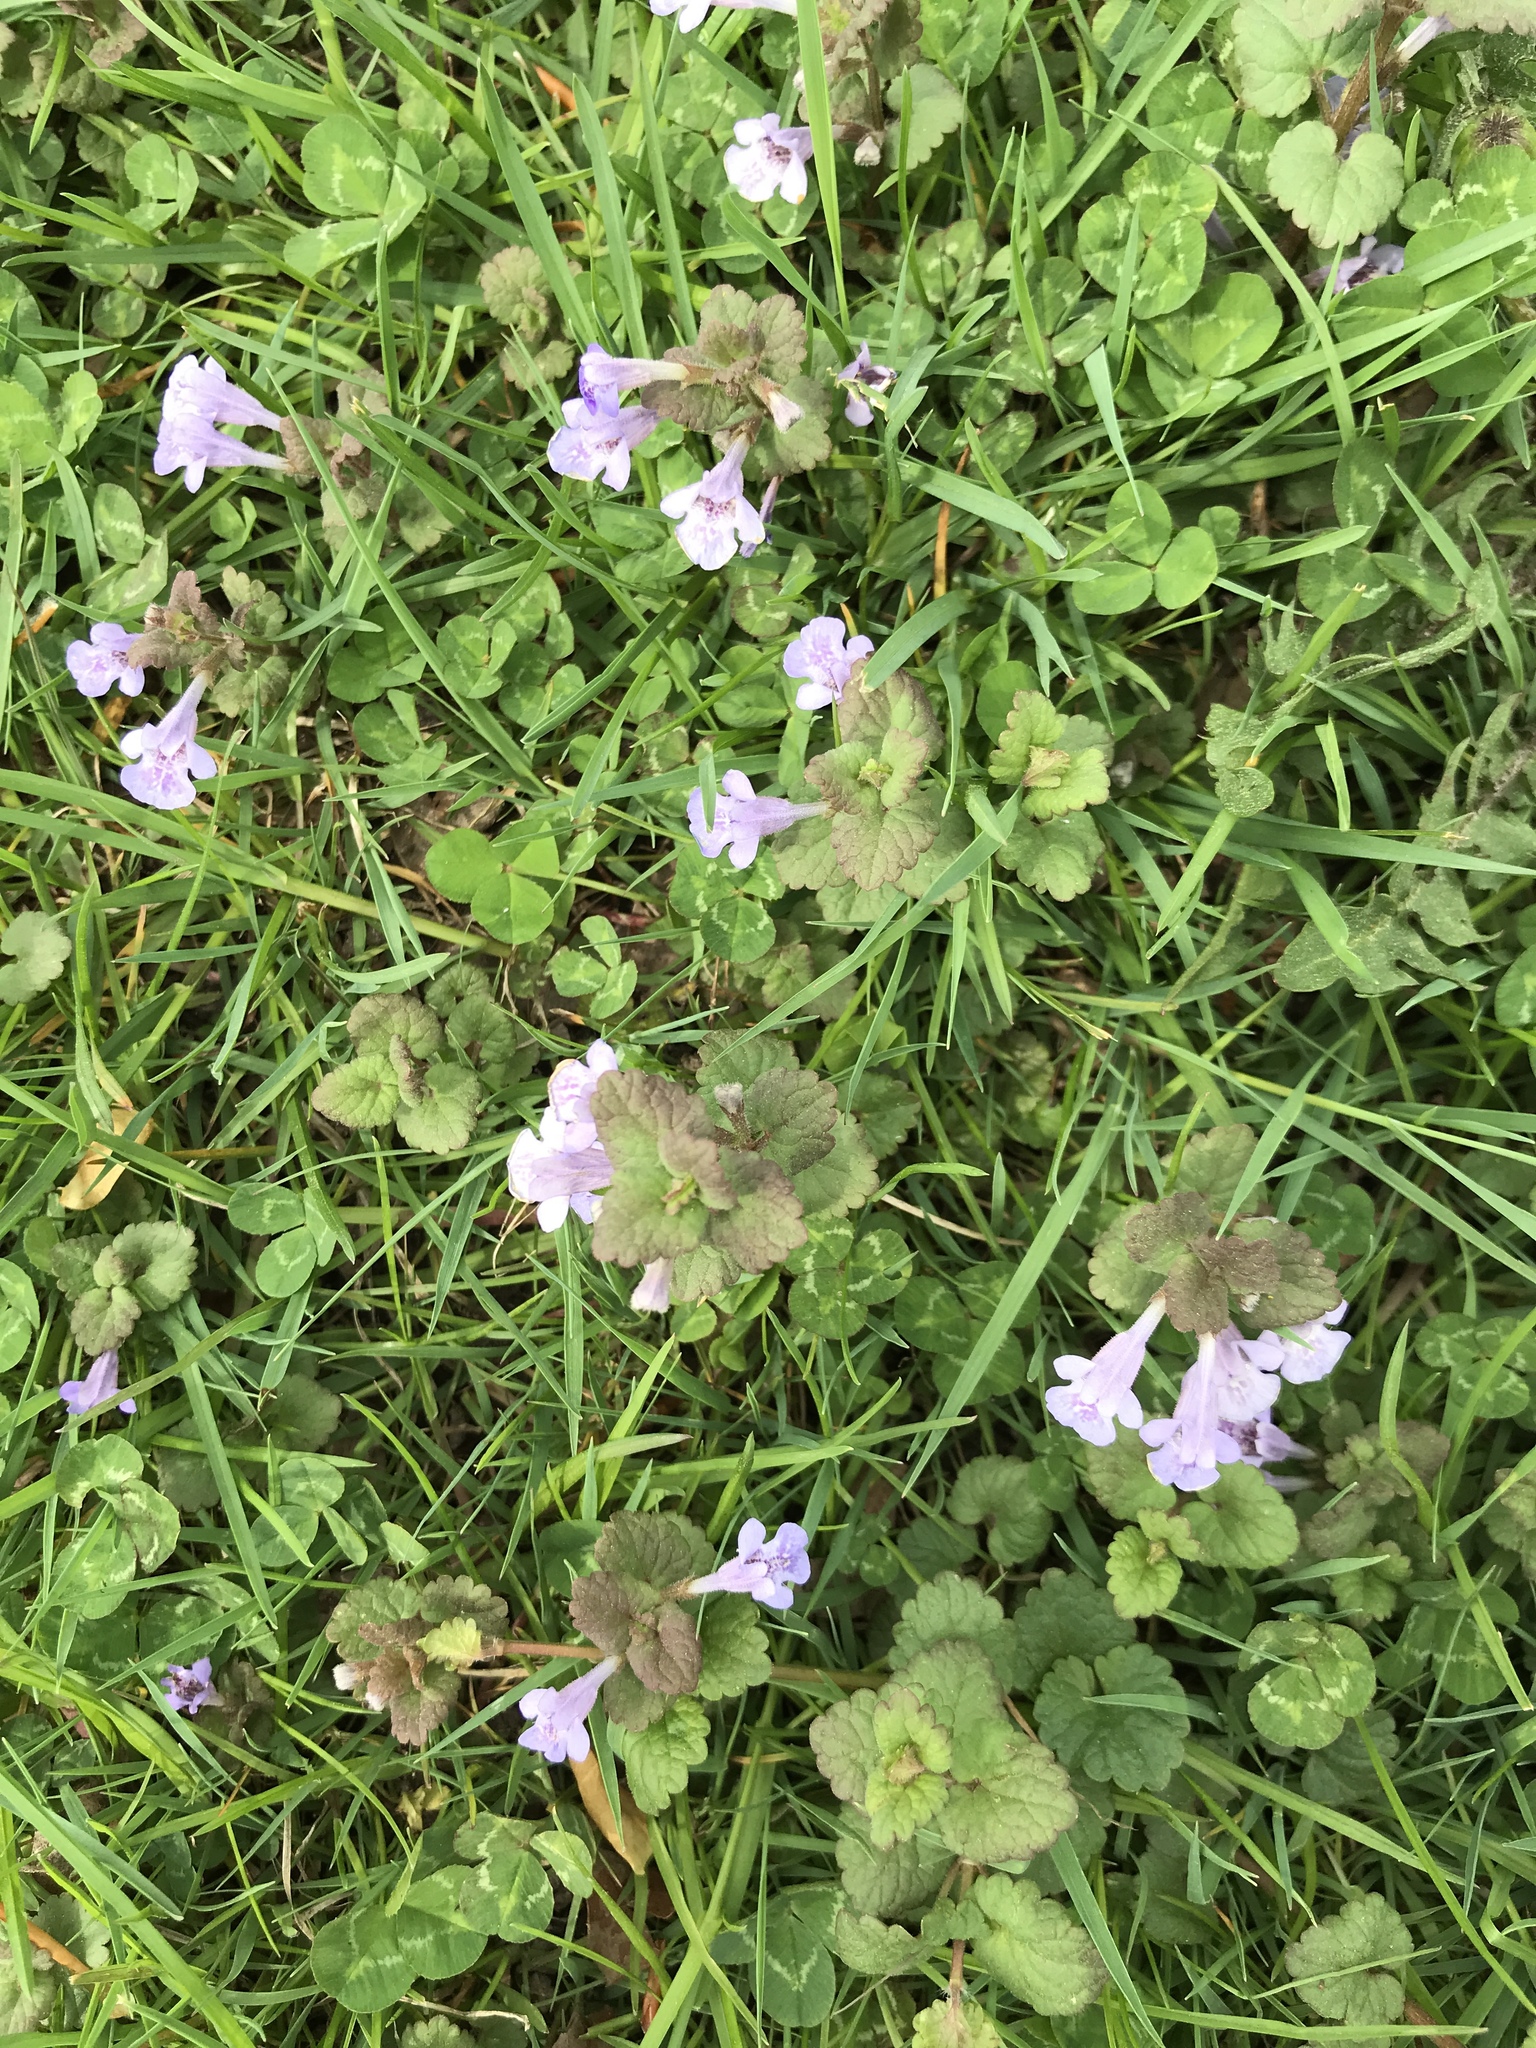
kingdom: Plantae
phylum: Tracheophyta
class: Magnoliopsida
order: Lamiales
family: Lamiaceae
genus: Glechoma
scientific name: Glechoma hederacea
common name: Ground ivy
